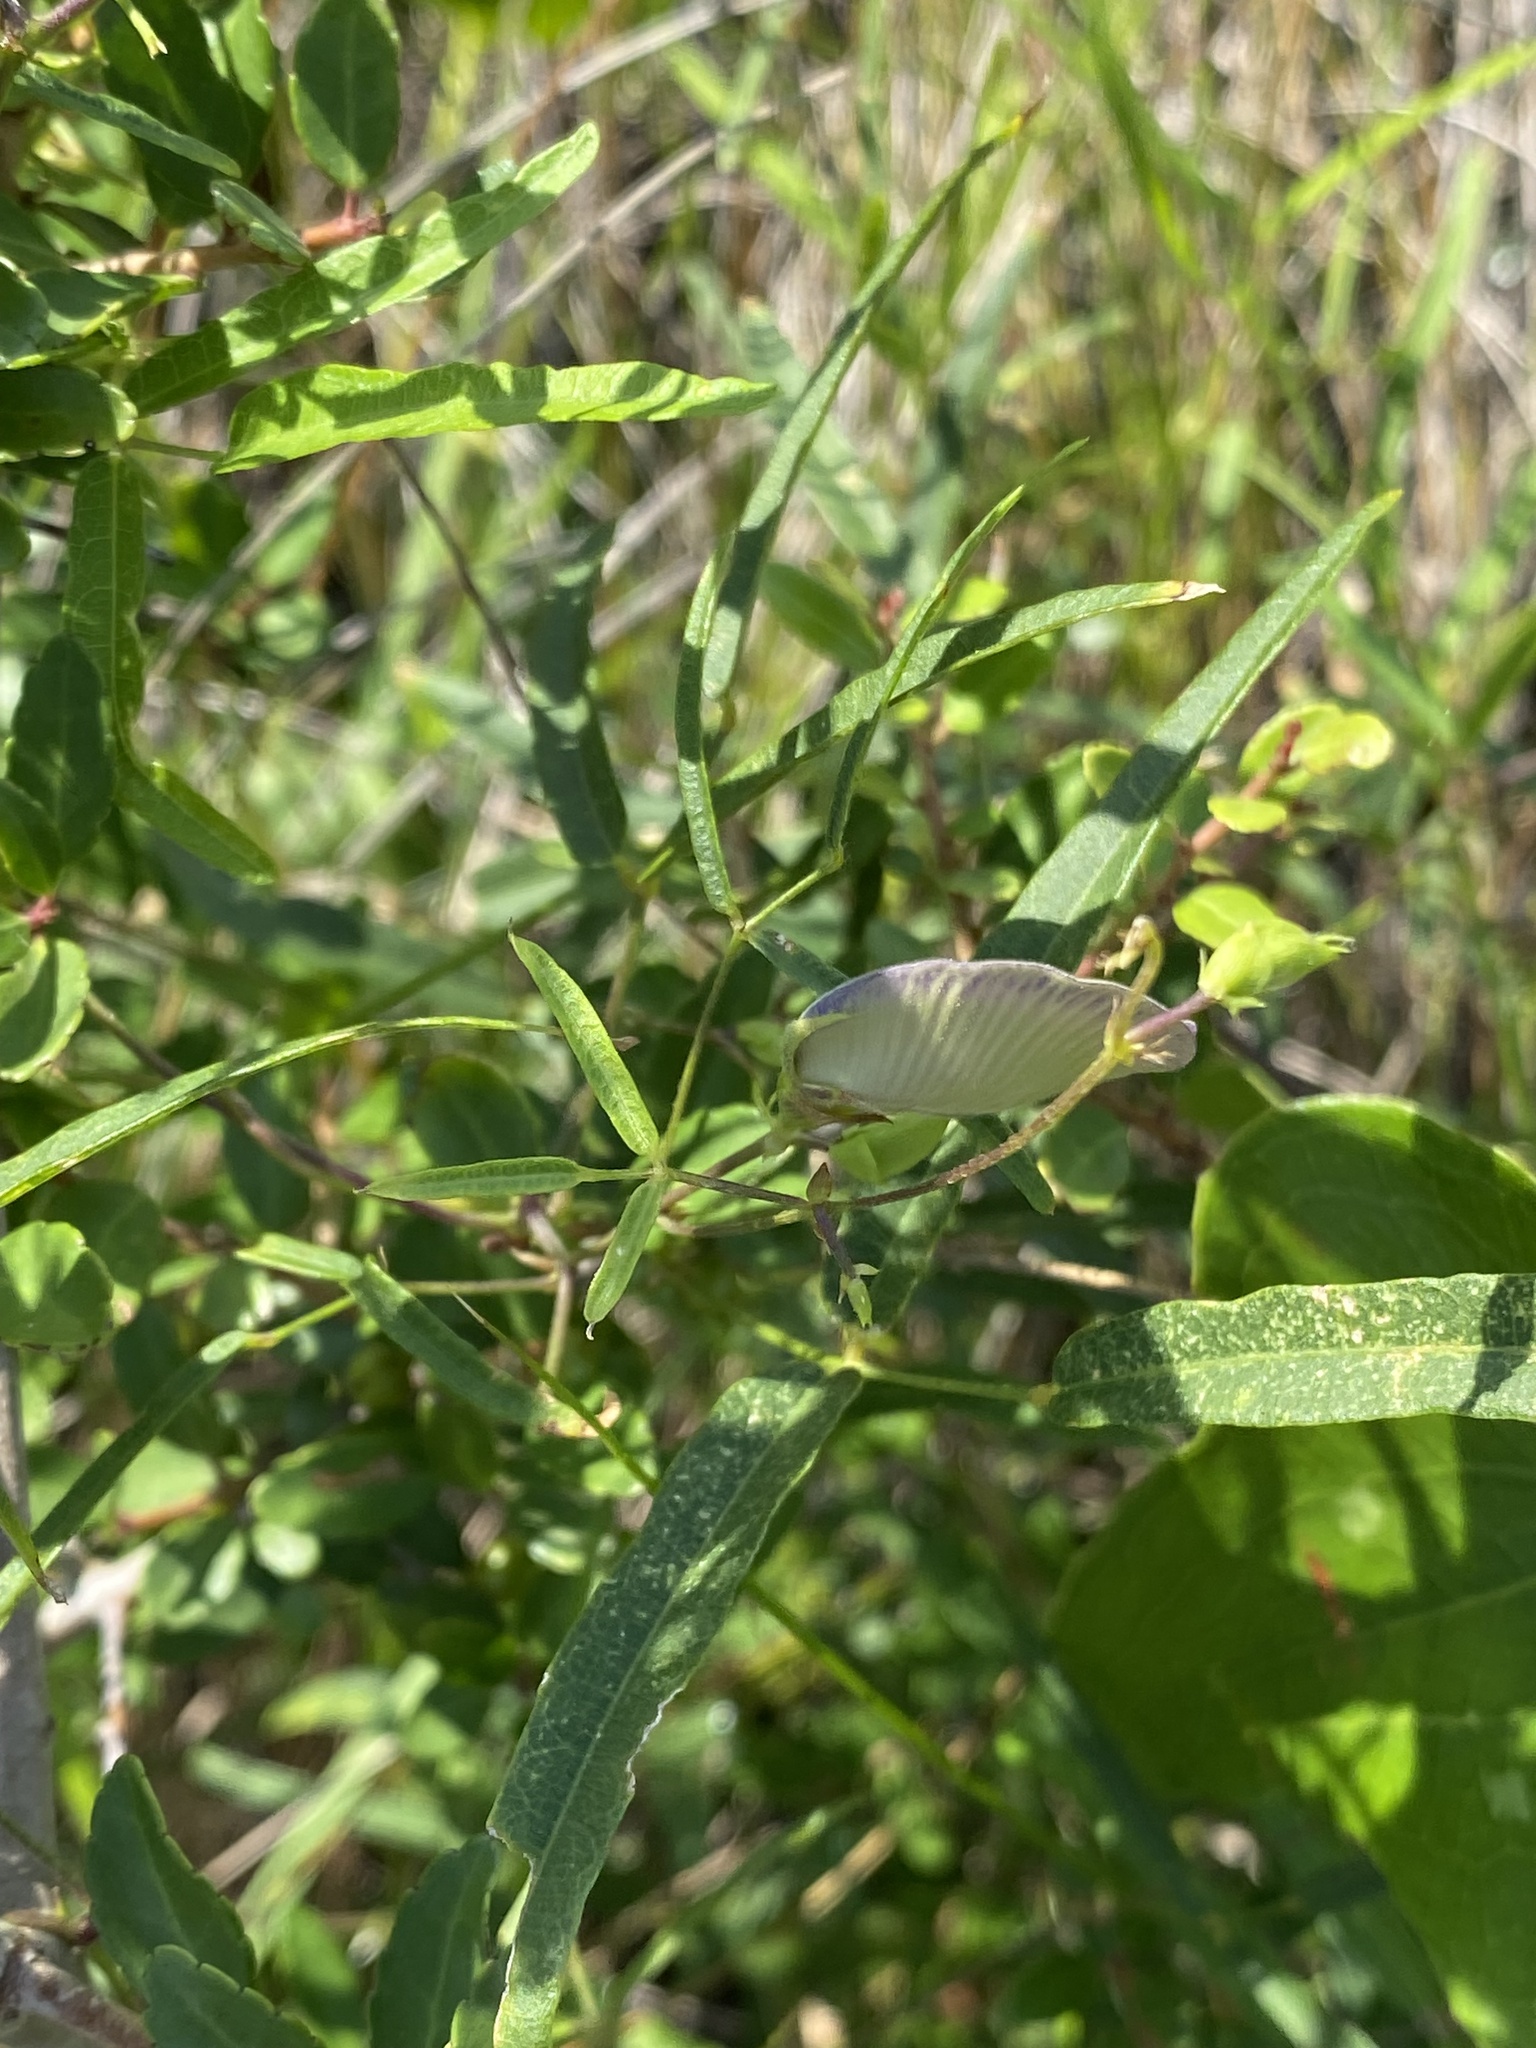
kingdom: Plantae
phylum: Tracheophyta
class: Magnoliopsida
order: Fabales
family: Fabaceae
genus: Centrosema
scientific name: Centrosema virginianum
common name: Butterfly-pea
